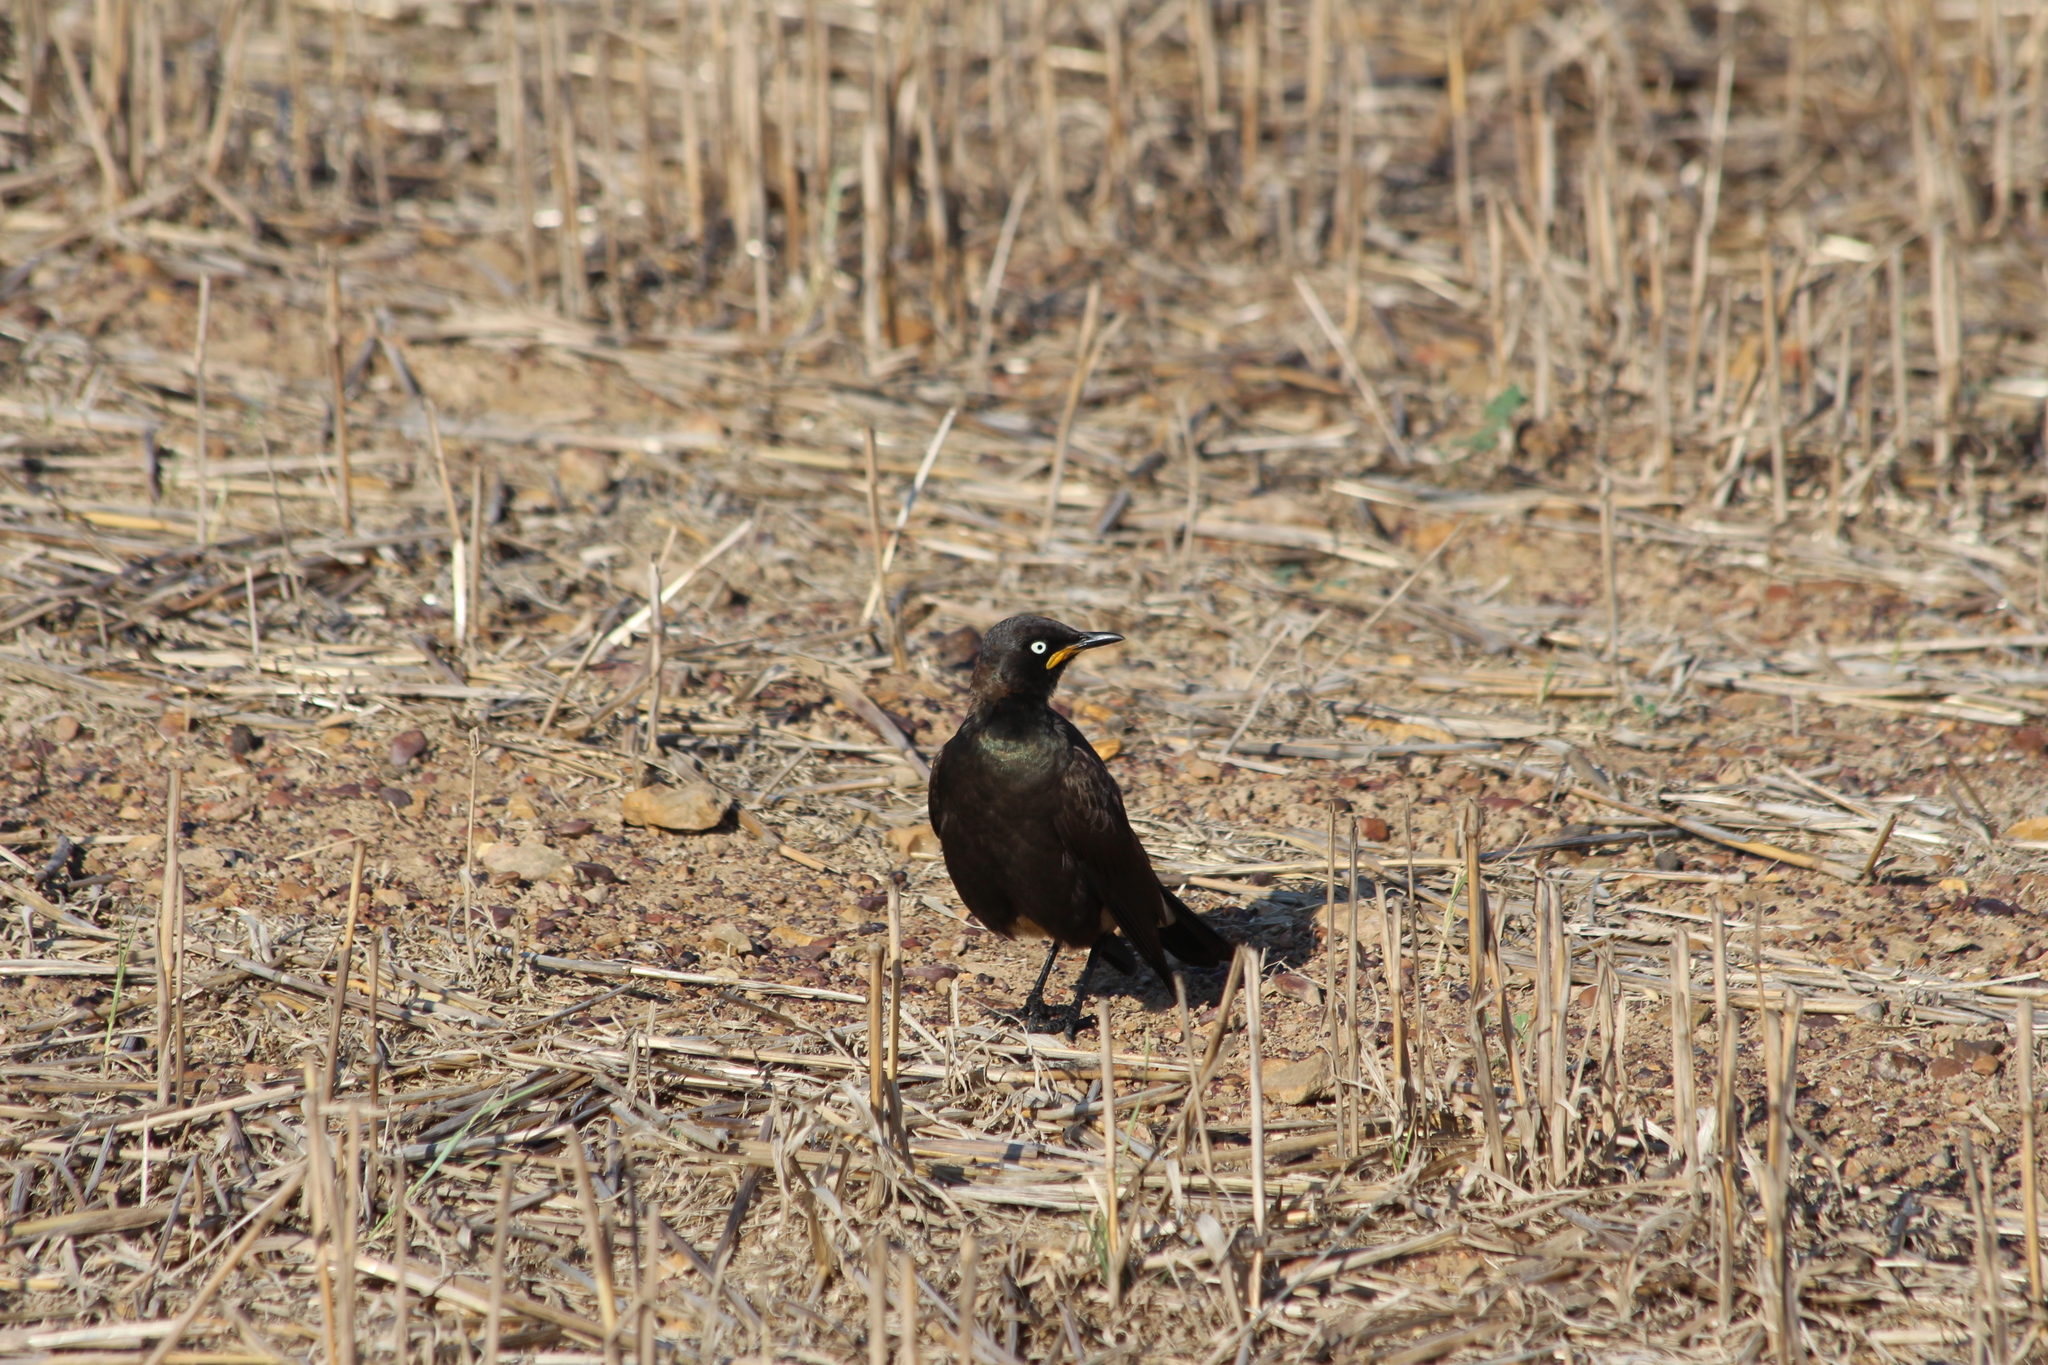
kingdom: Animalia
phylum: Chordata
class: Aves
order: Passeriformes
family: Sturnidae
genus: Lamprotornis
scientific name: Lamprotornis bicolor
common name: Pied starling
